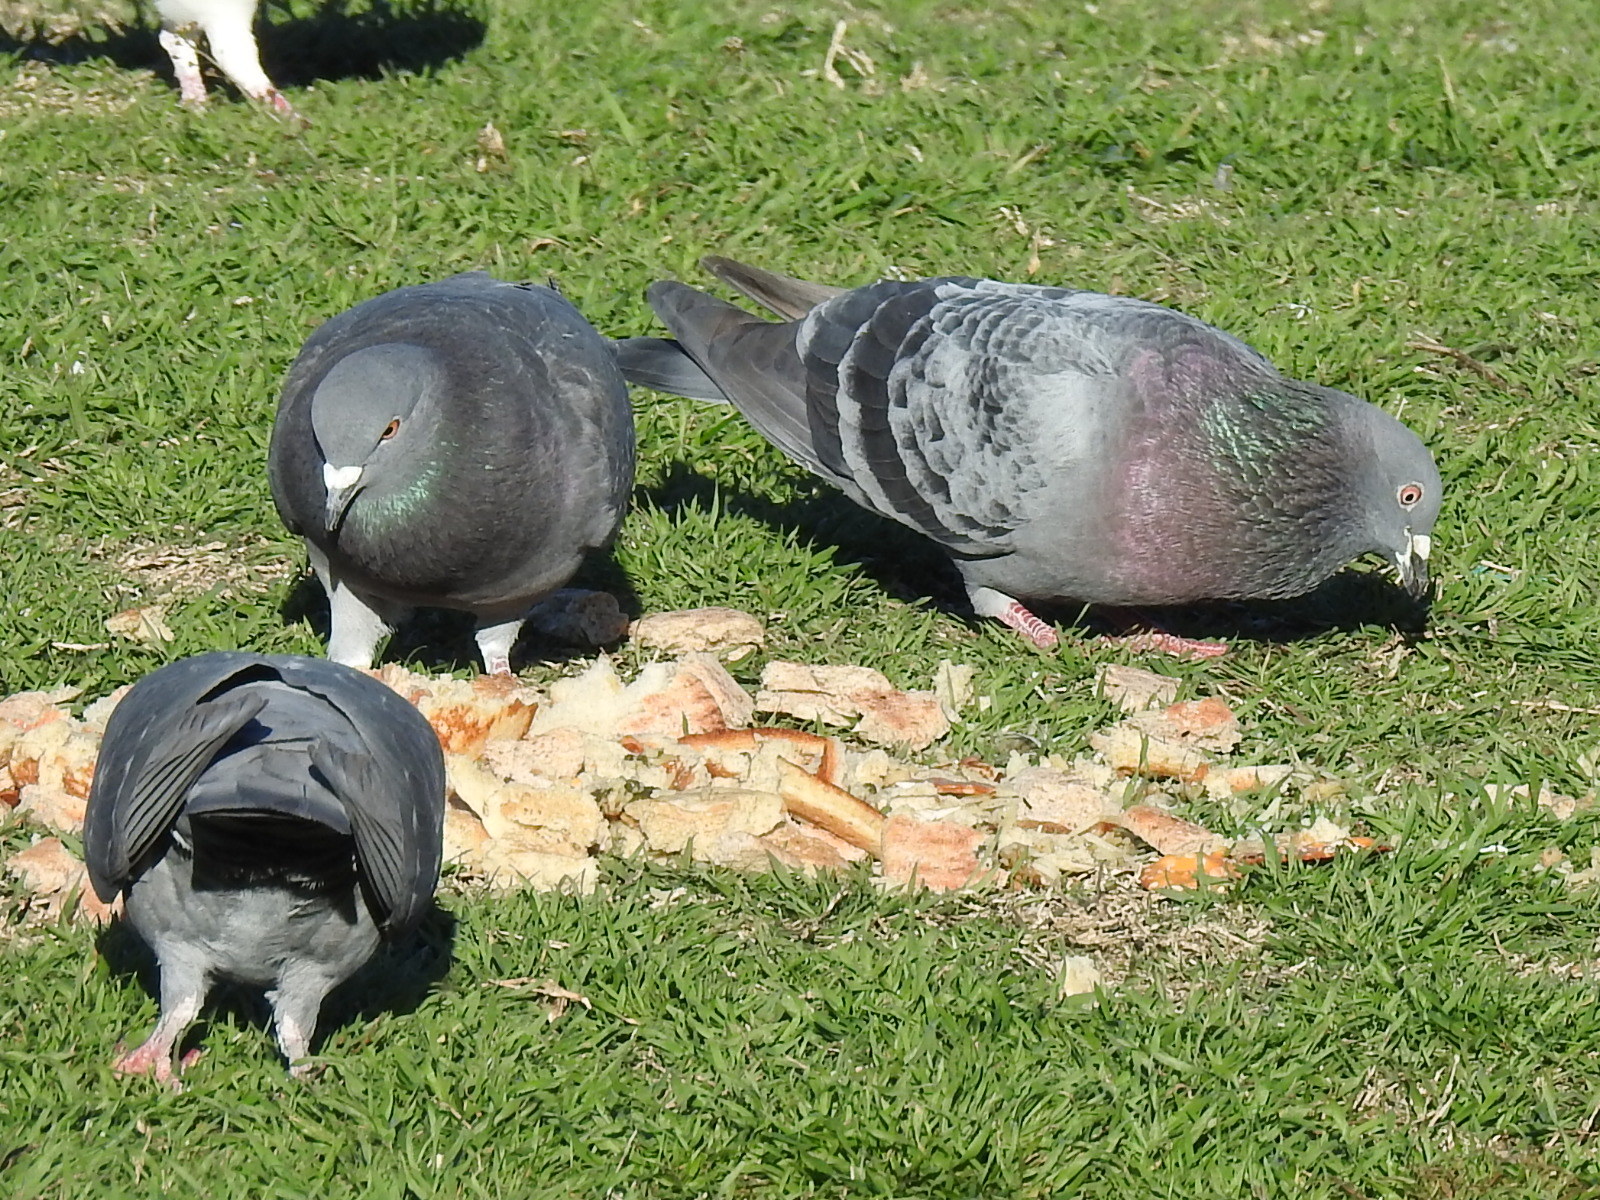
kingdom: Animalia
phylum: Chordata
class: Aves
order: Columbiformes
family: Columbidae
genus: Columba
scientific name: Columba livia
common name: Rock pigeon
